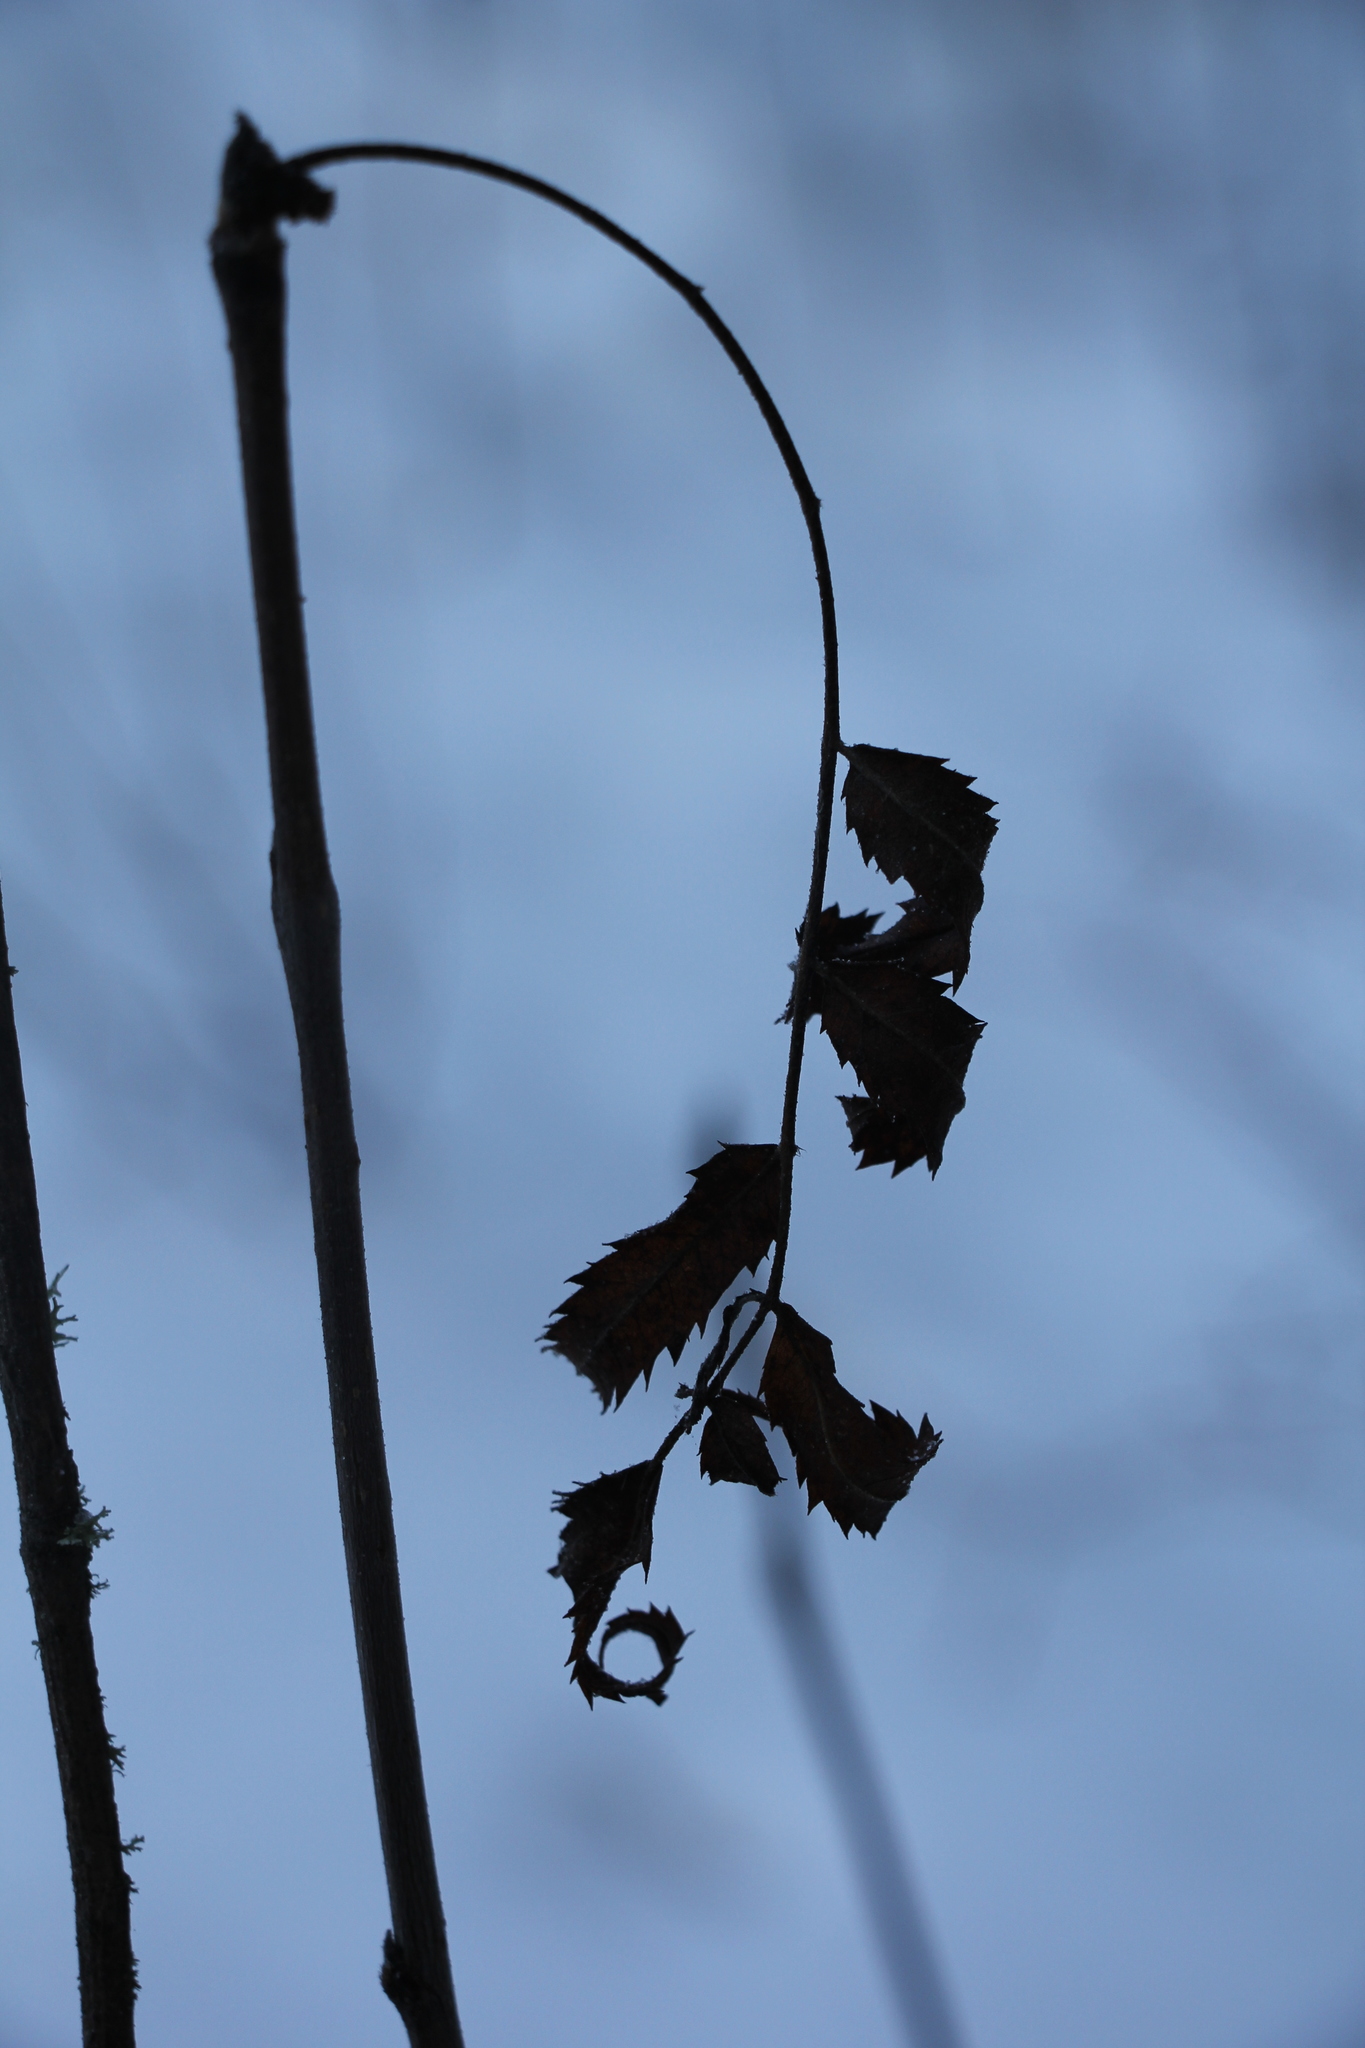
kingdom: Plantae
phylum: Tracheophyta
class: Magnoliopsida
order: Rosales
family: Rosaceae
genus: Sorbus
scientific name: Sorbus aucuparia
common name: Rowan
